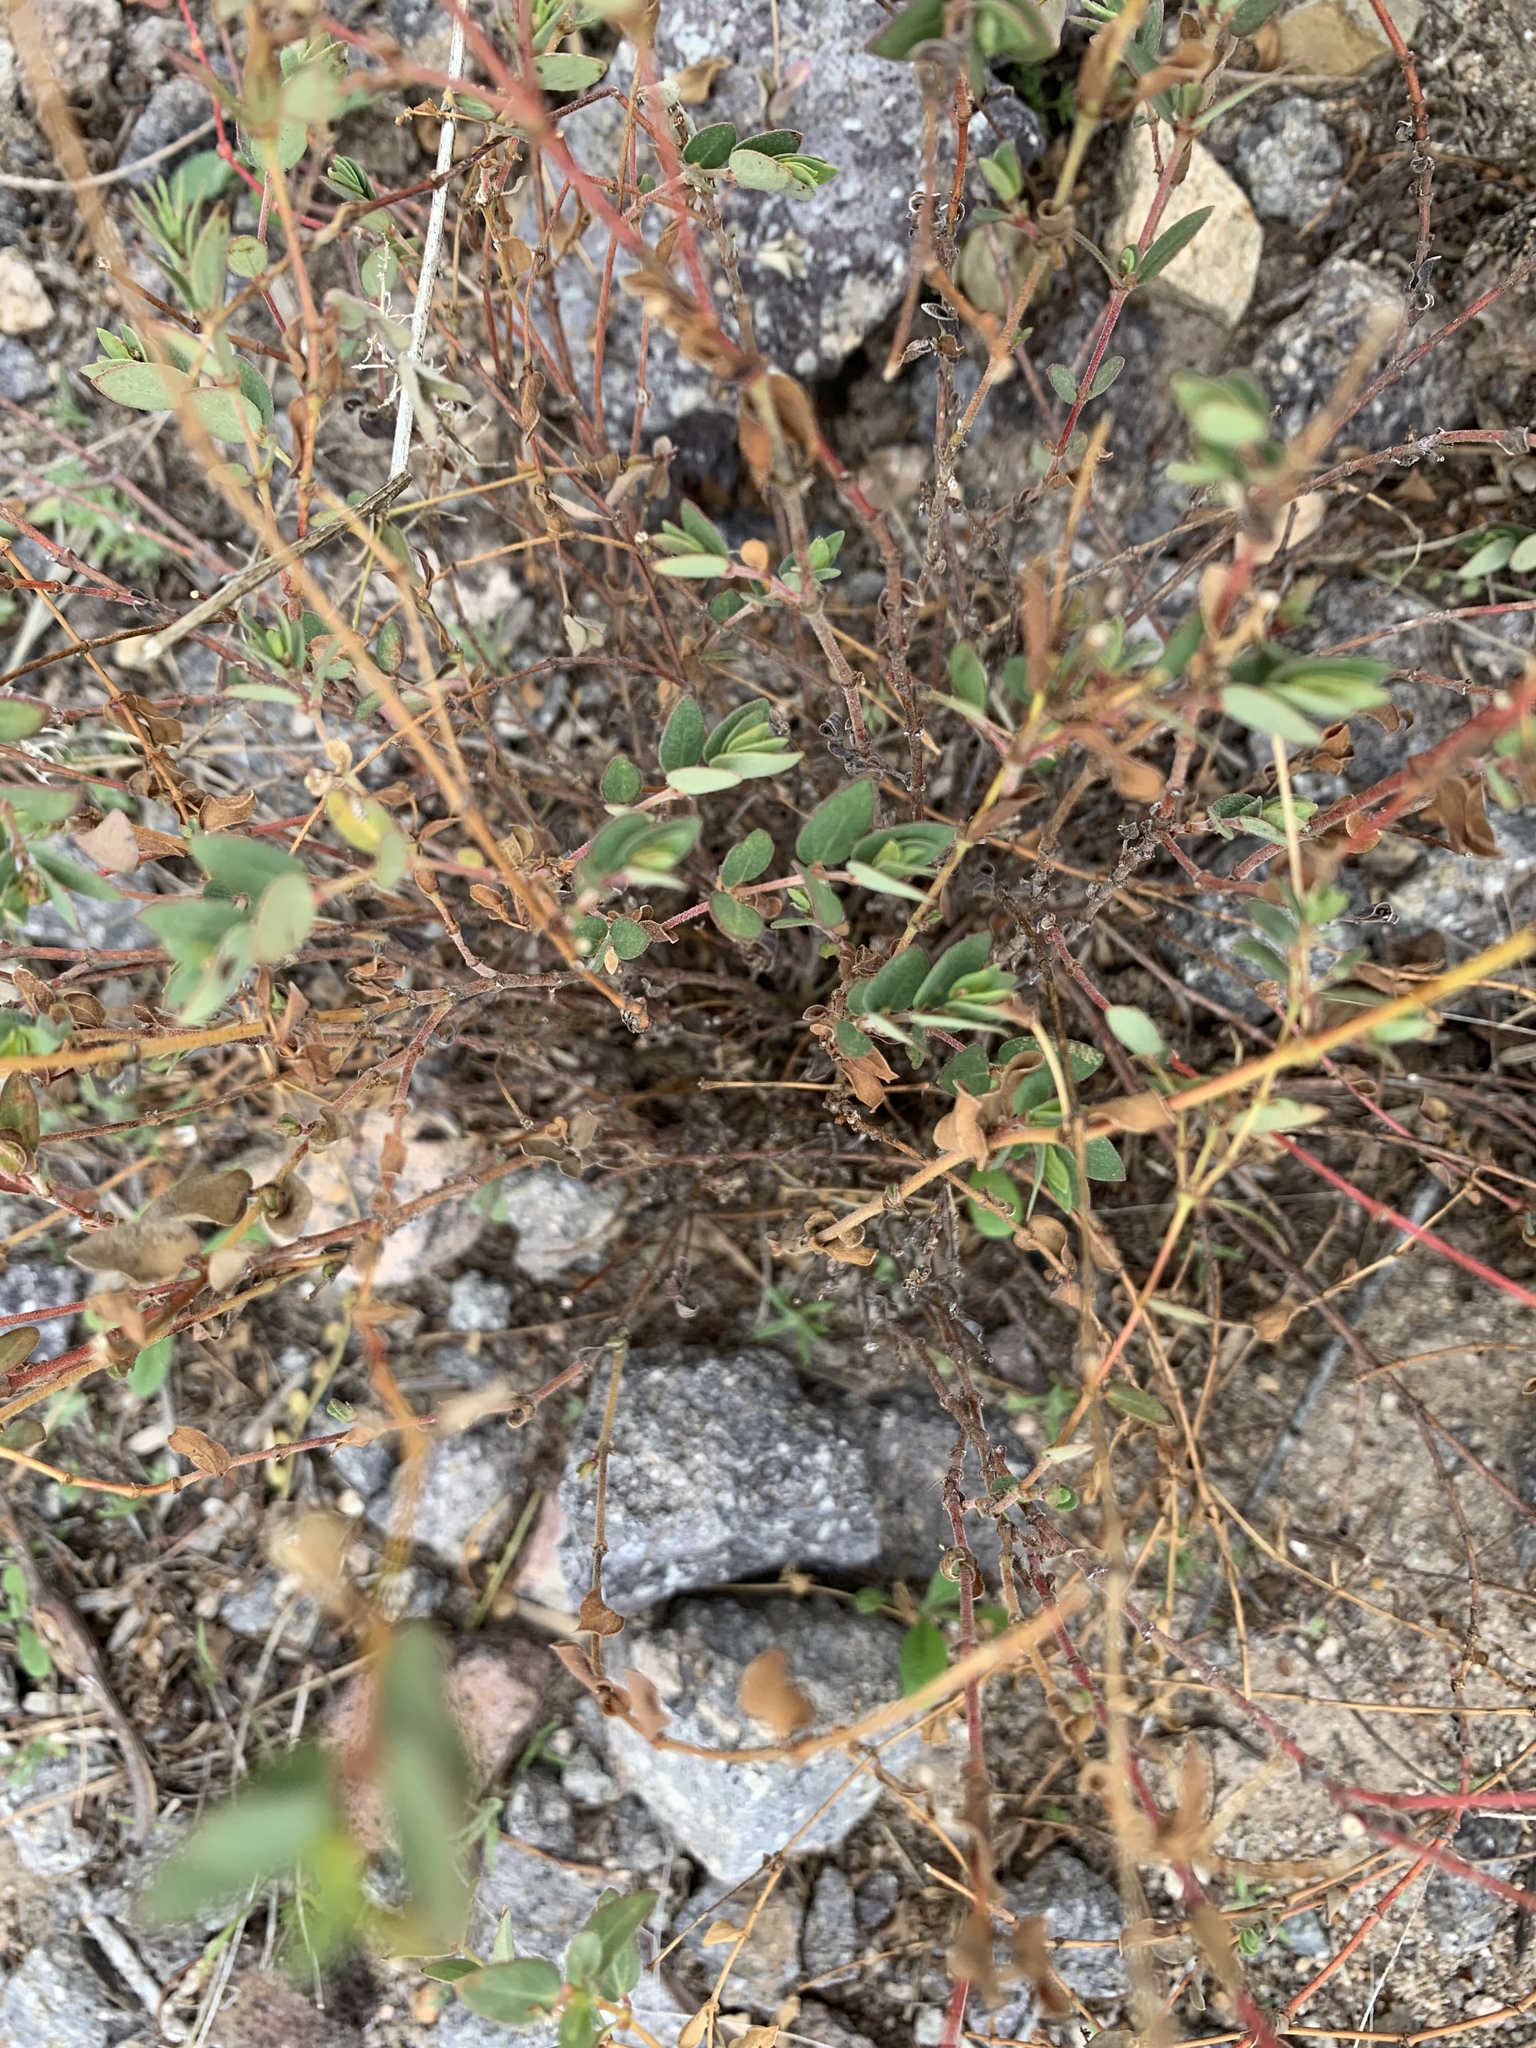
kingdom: Plantae
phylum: Tracheophyta
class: Magnoliopsida
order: Malpighiales
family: Euphorbiaceae
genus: Euphorbia
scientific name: Euphorbia capitellata
